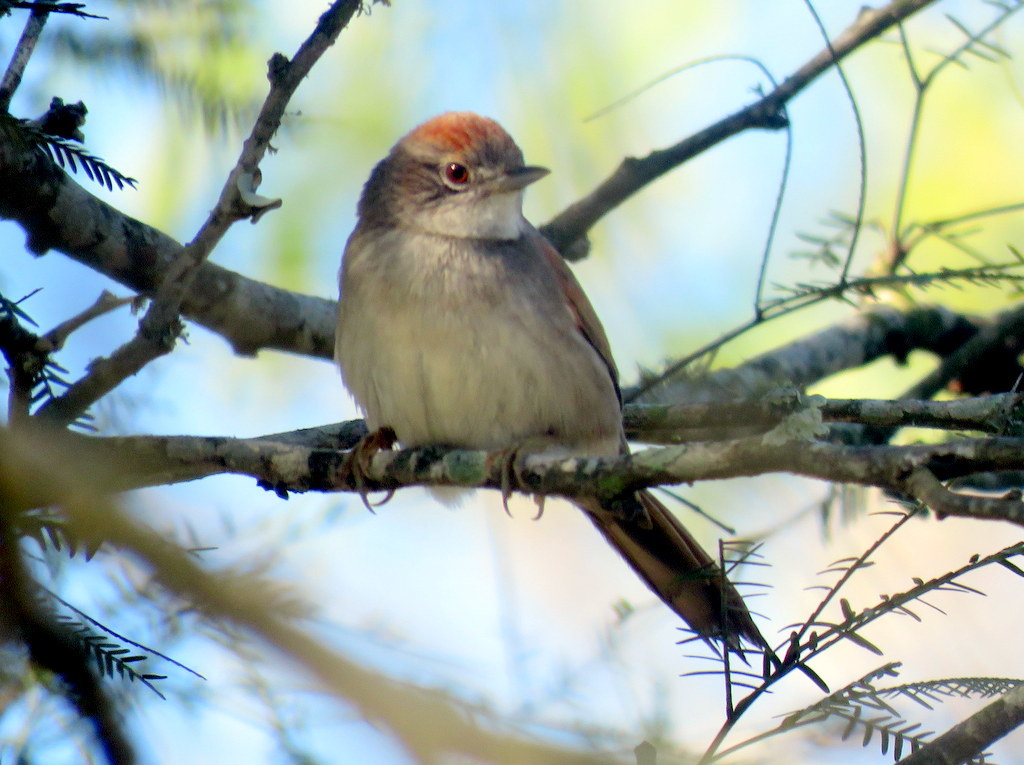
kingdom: Animalia
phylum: Chordata
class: Aves
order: Passeriformes
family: Furnariidae
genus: Synallaxis
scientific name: Synallaxis albescens
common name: Pale-breasted spinetail
